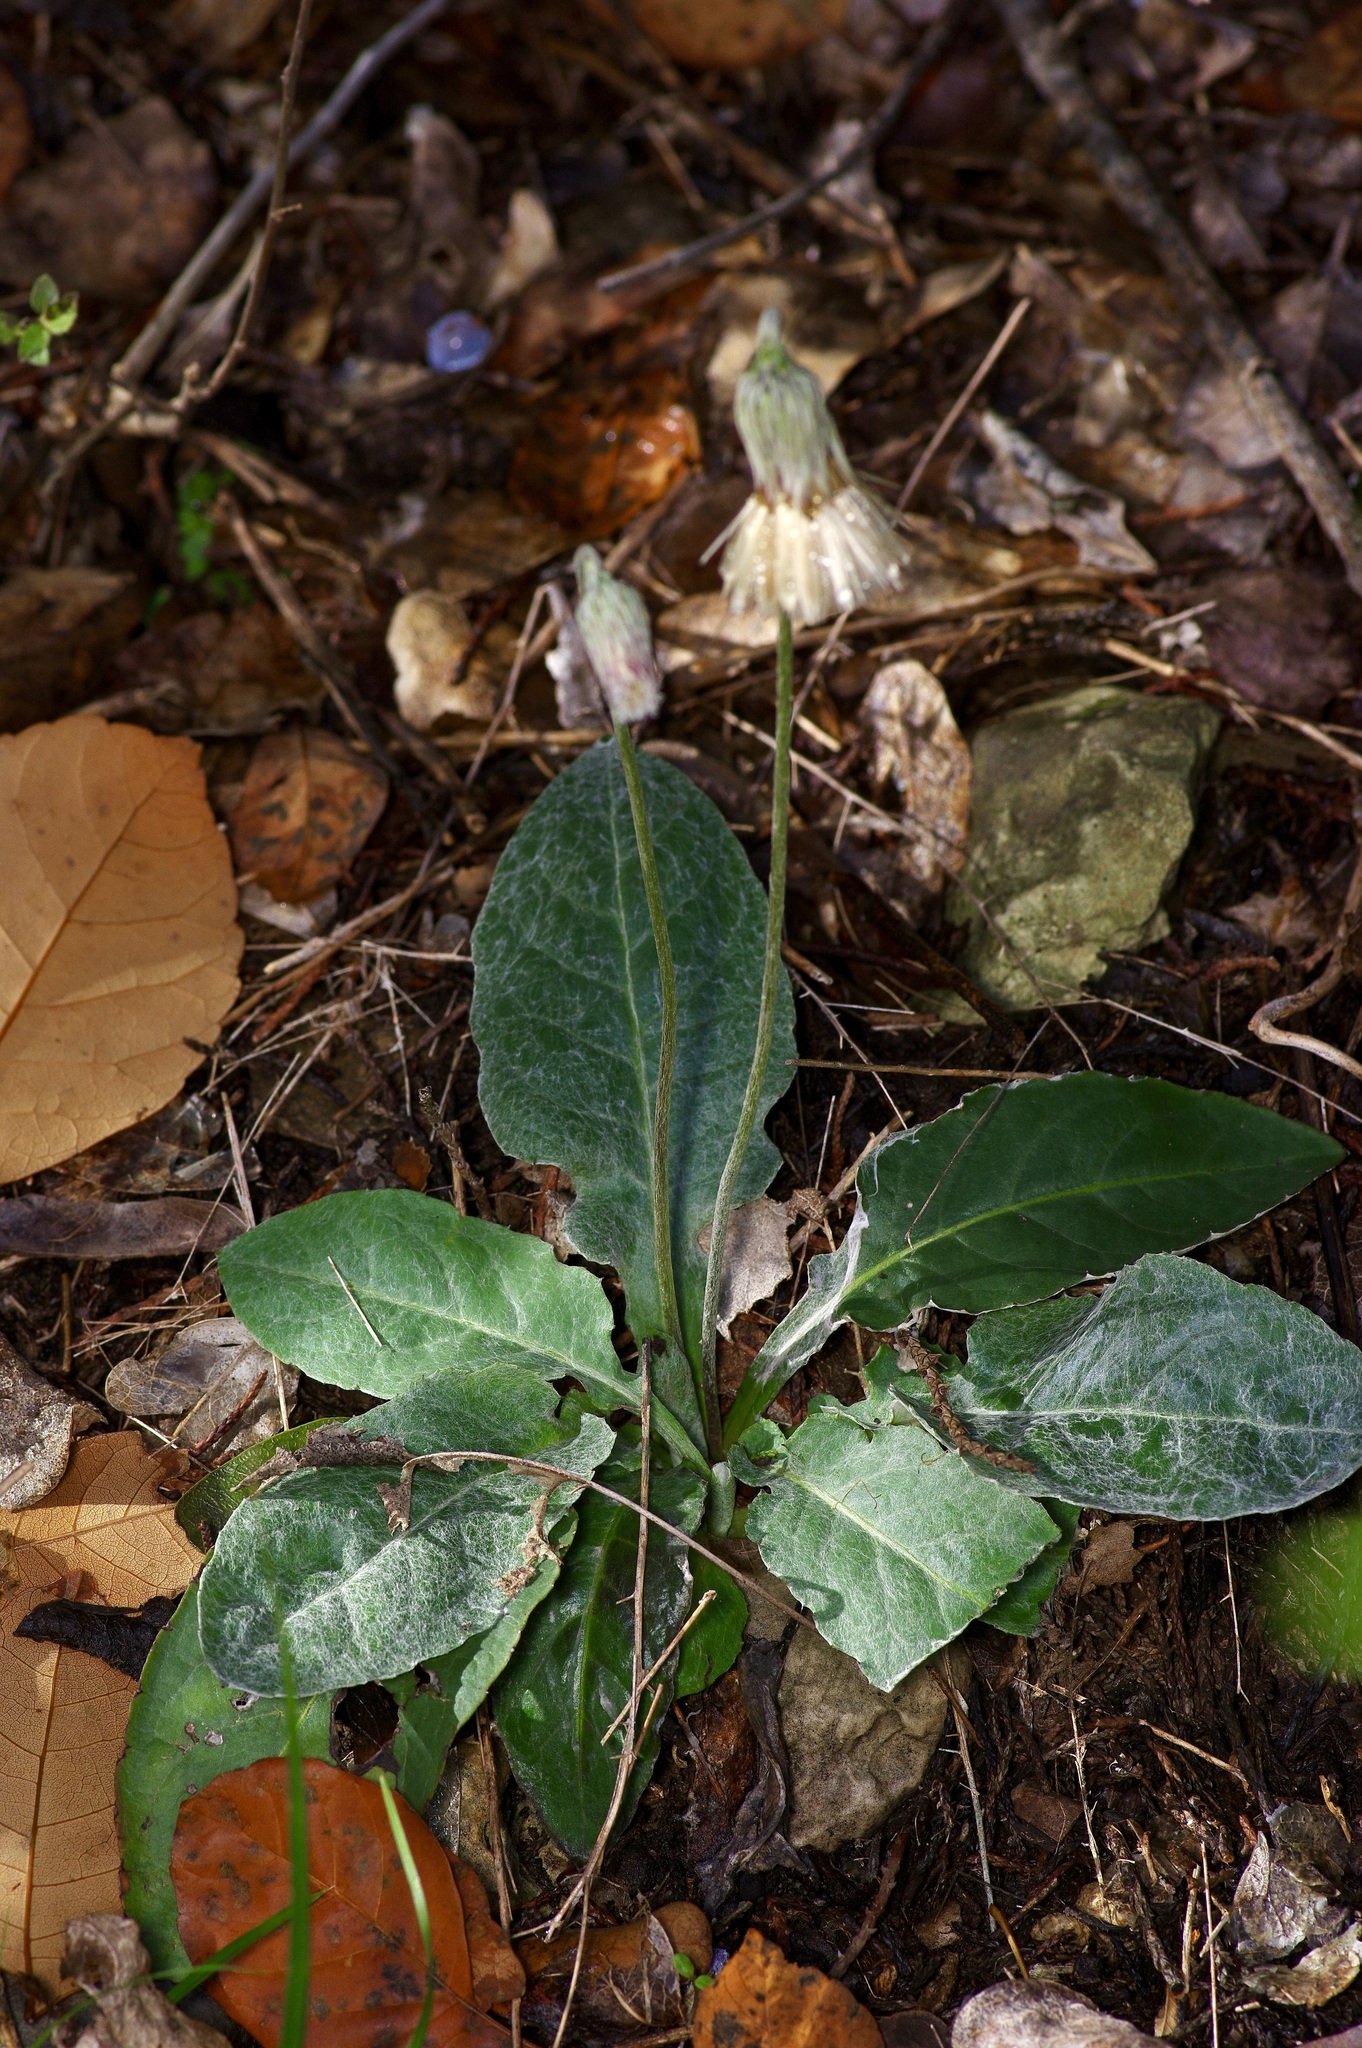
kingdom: Plantae
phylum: Tracheophyta
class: Magnoliopsida
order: Asterales
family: Asteraceae
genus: Chaptalia
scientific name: Chaptalia texana
